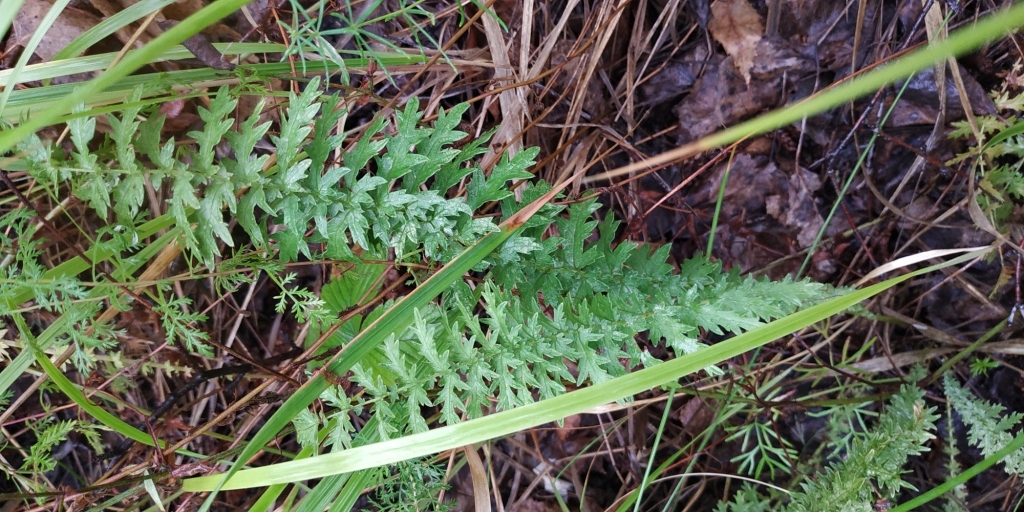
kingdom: Plantae
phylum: Tracheophyta
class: Magnoliopsida
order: Rosales
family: Rosaceae
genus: Filipendula
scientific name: Filipendula vulgaris
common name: Dropwort
